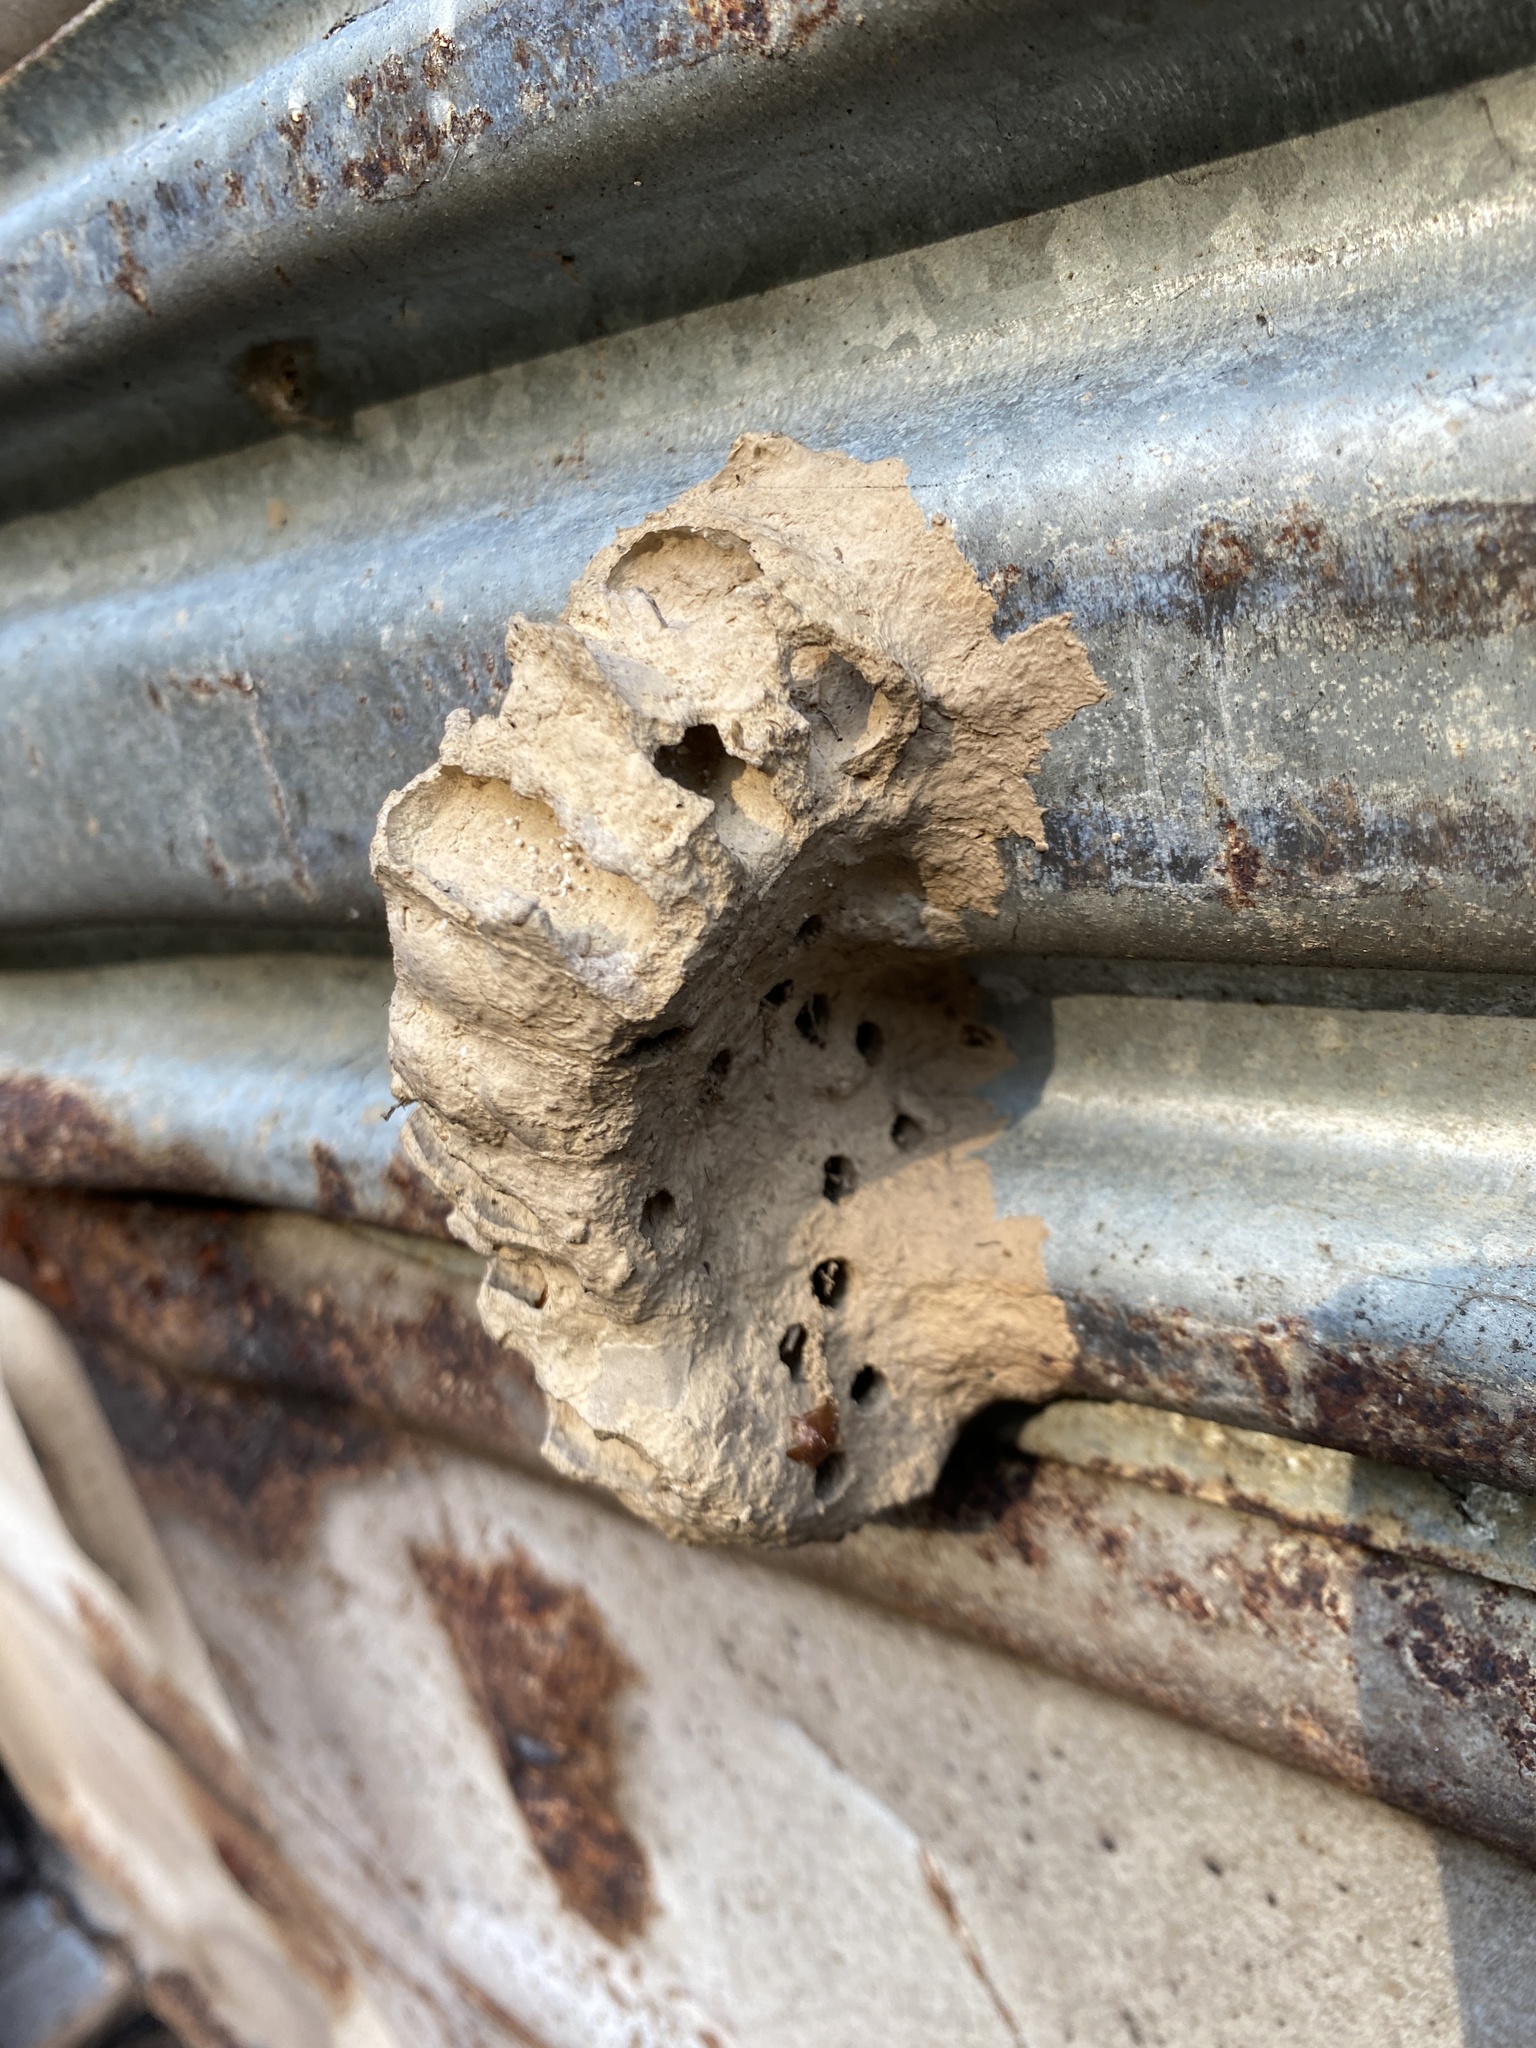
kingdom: Animalia
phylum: Arthropoda
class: Insecta
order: Hymenoptera
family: Sphecidae
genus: Sceliphron
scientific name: Sceliphron caementarium
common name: Mud dauber
